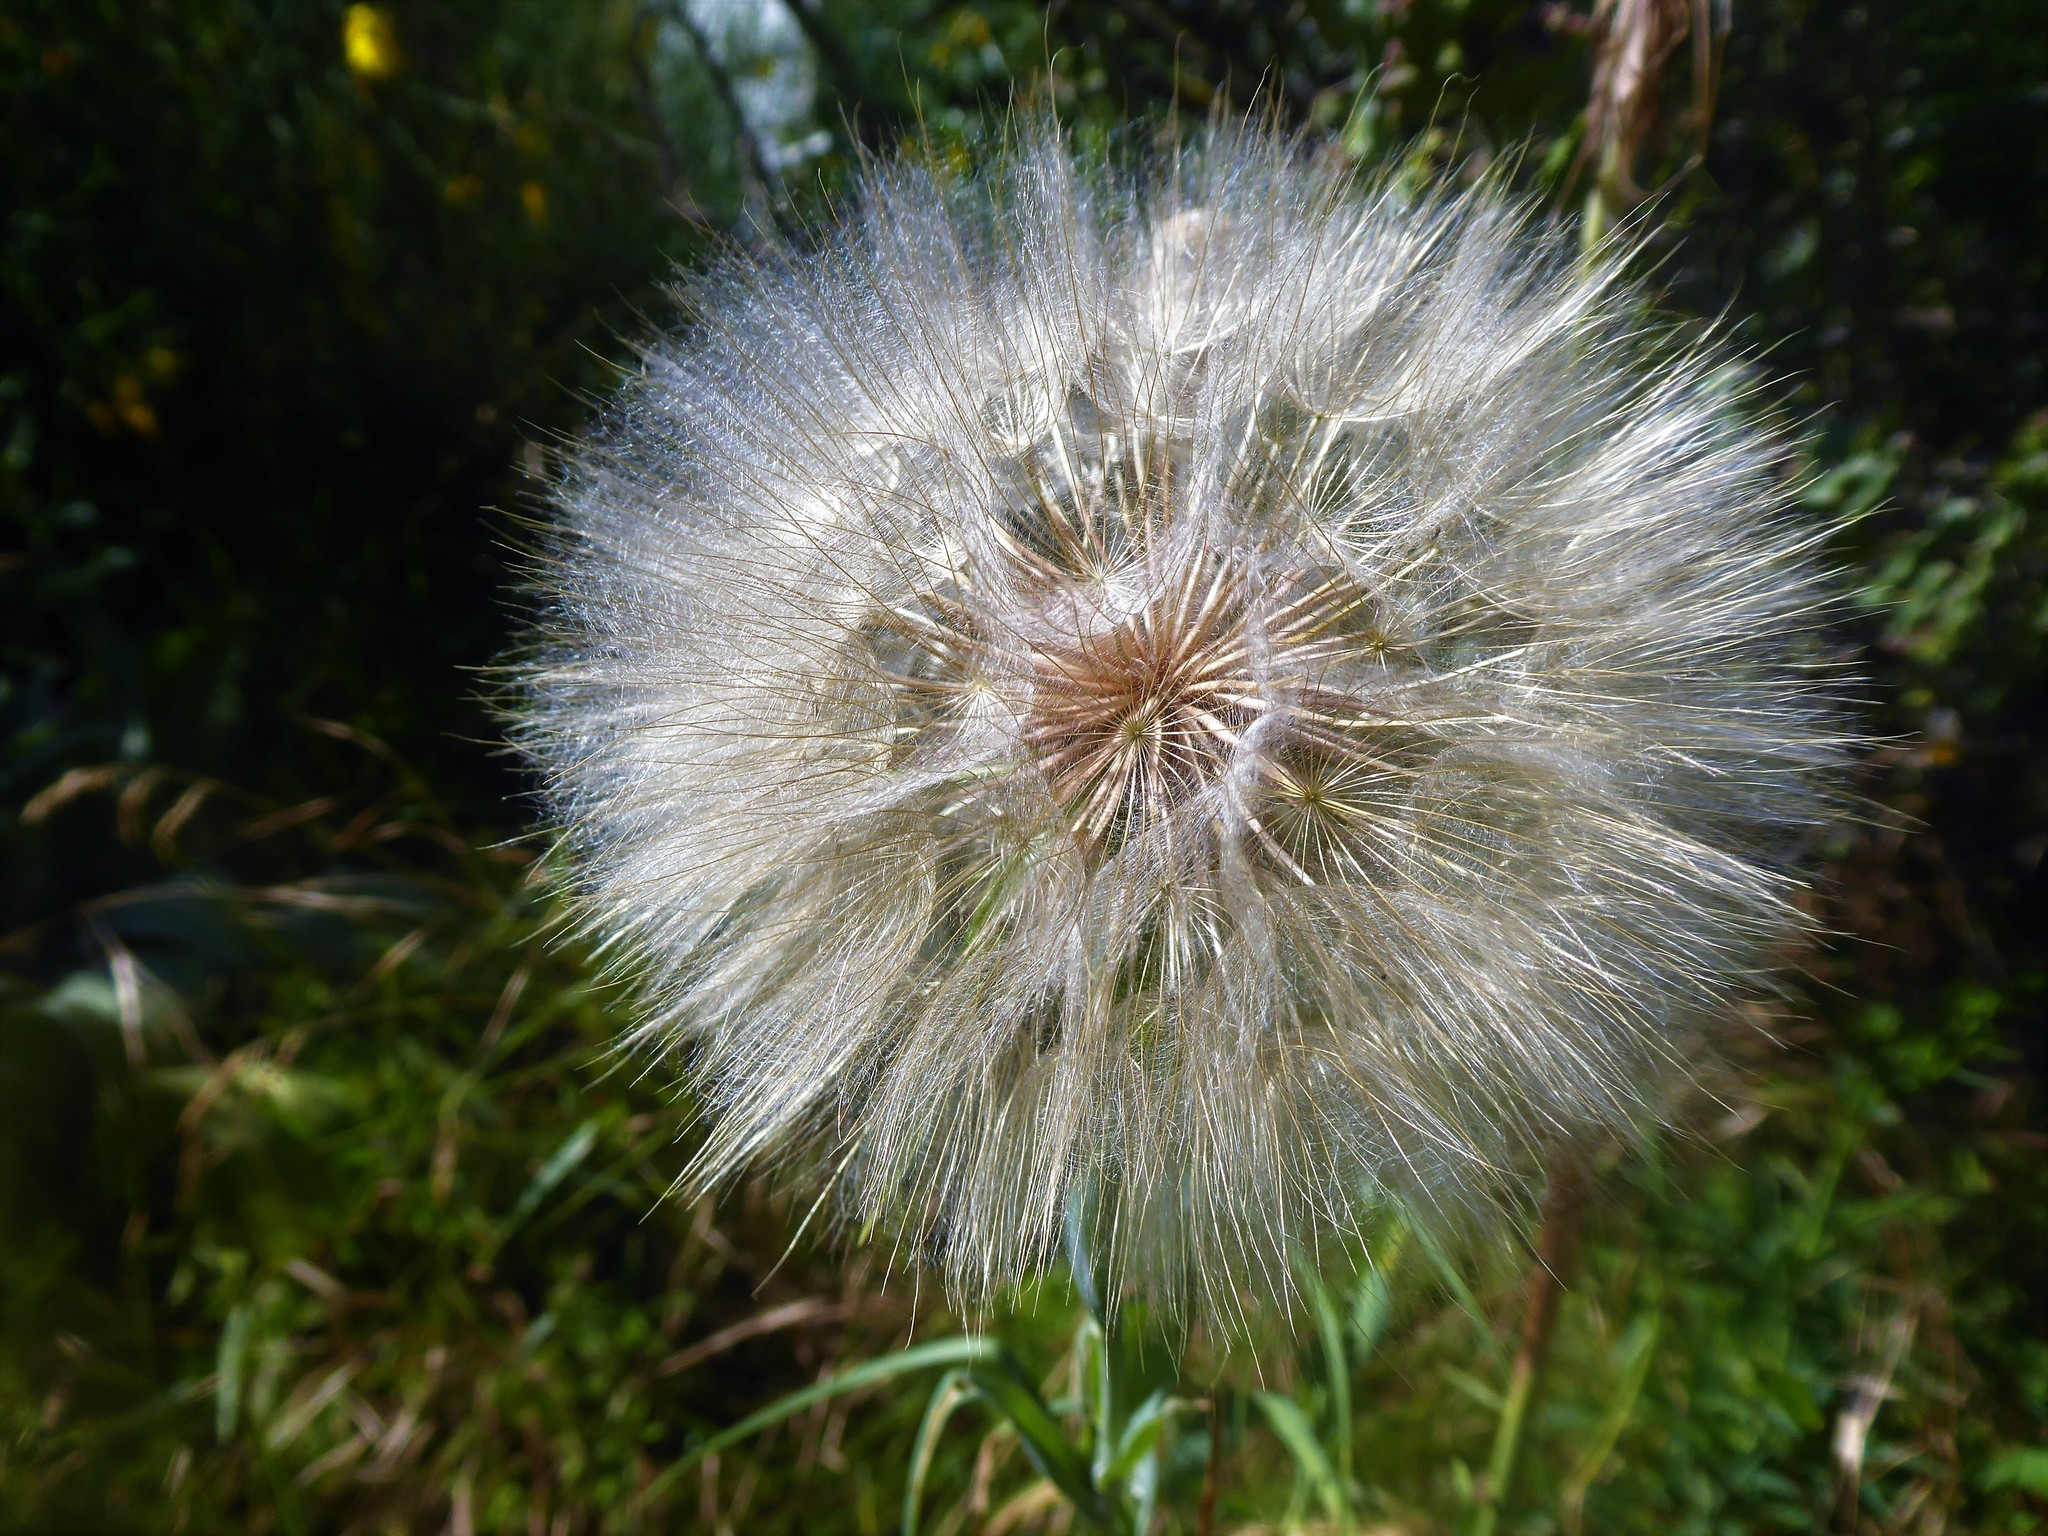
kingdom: Plantae
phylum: Tracheophyta
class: Magnoliopsida
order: Asterales
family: Asteraceae
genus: Tragopogon
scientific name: Tragopogon dubius
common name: Yellow salsify
